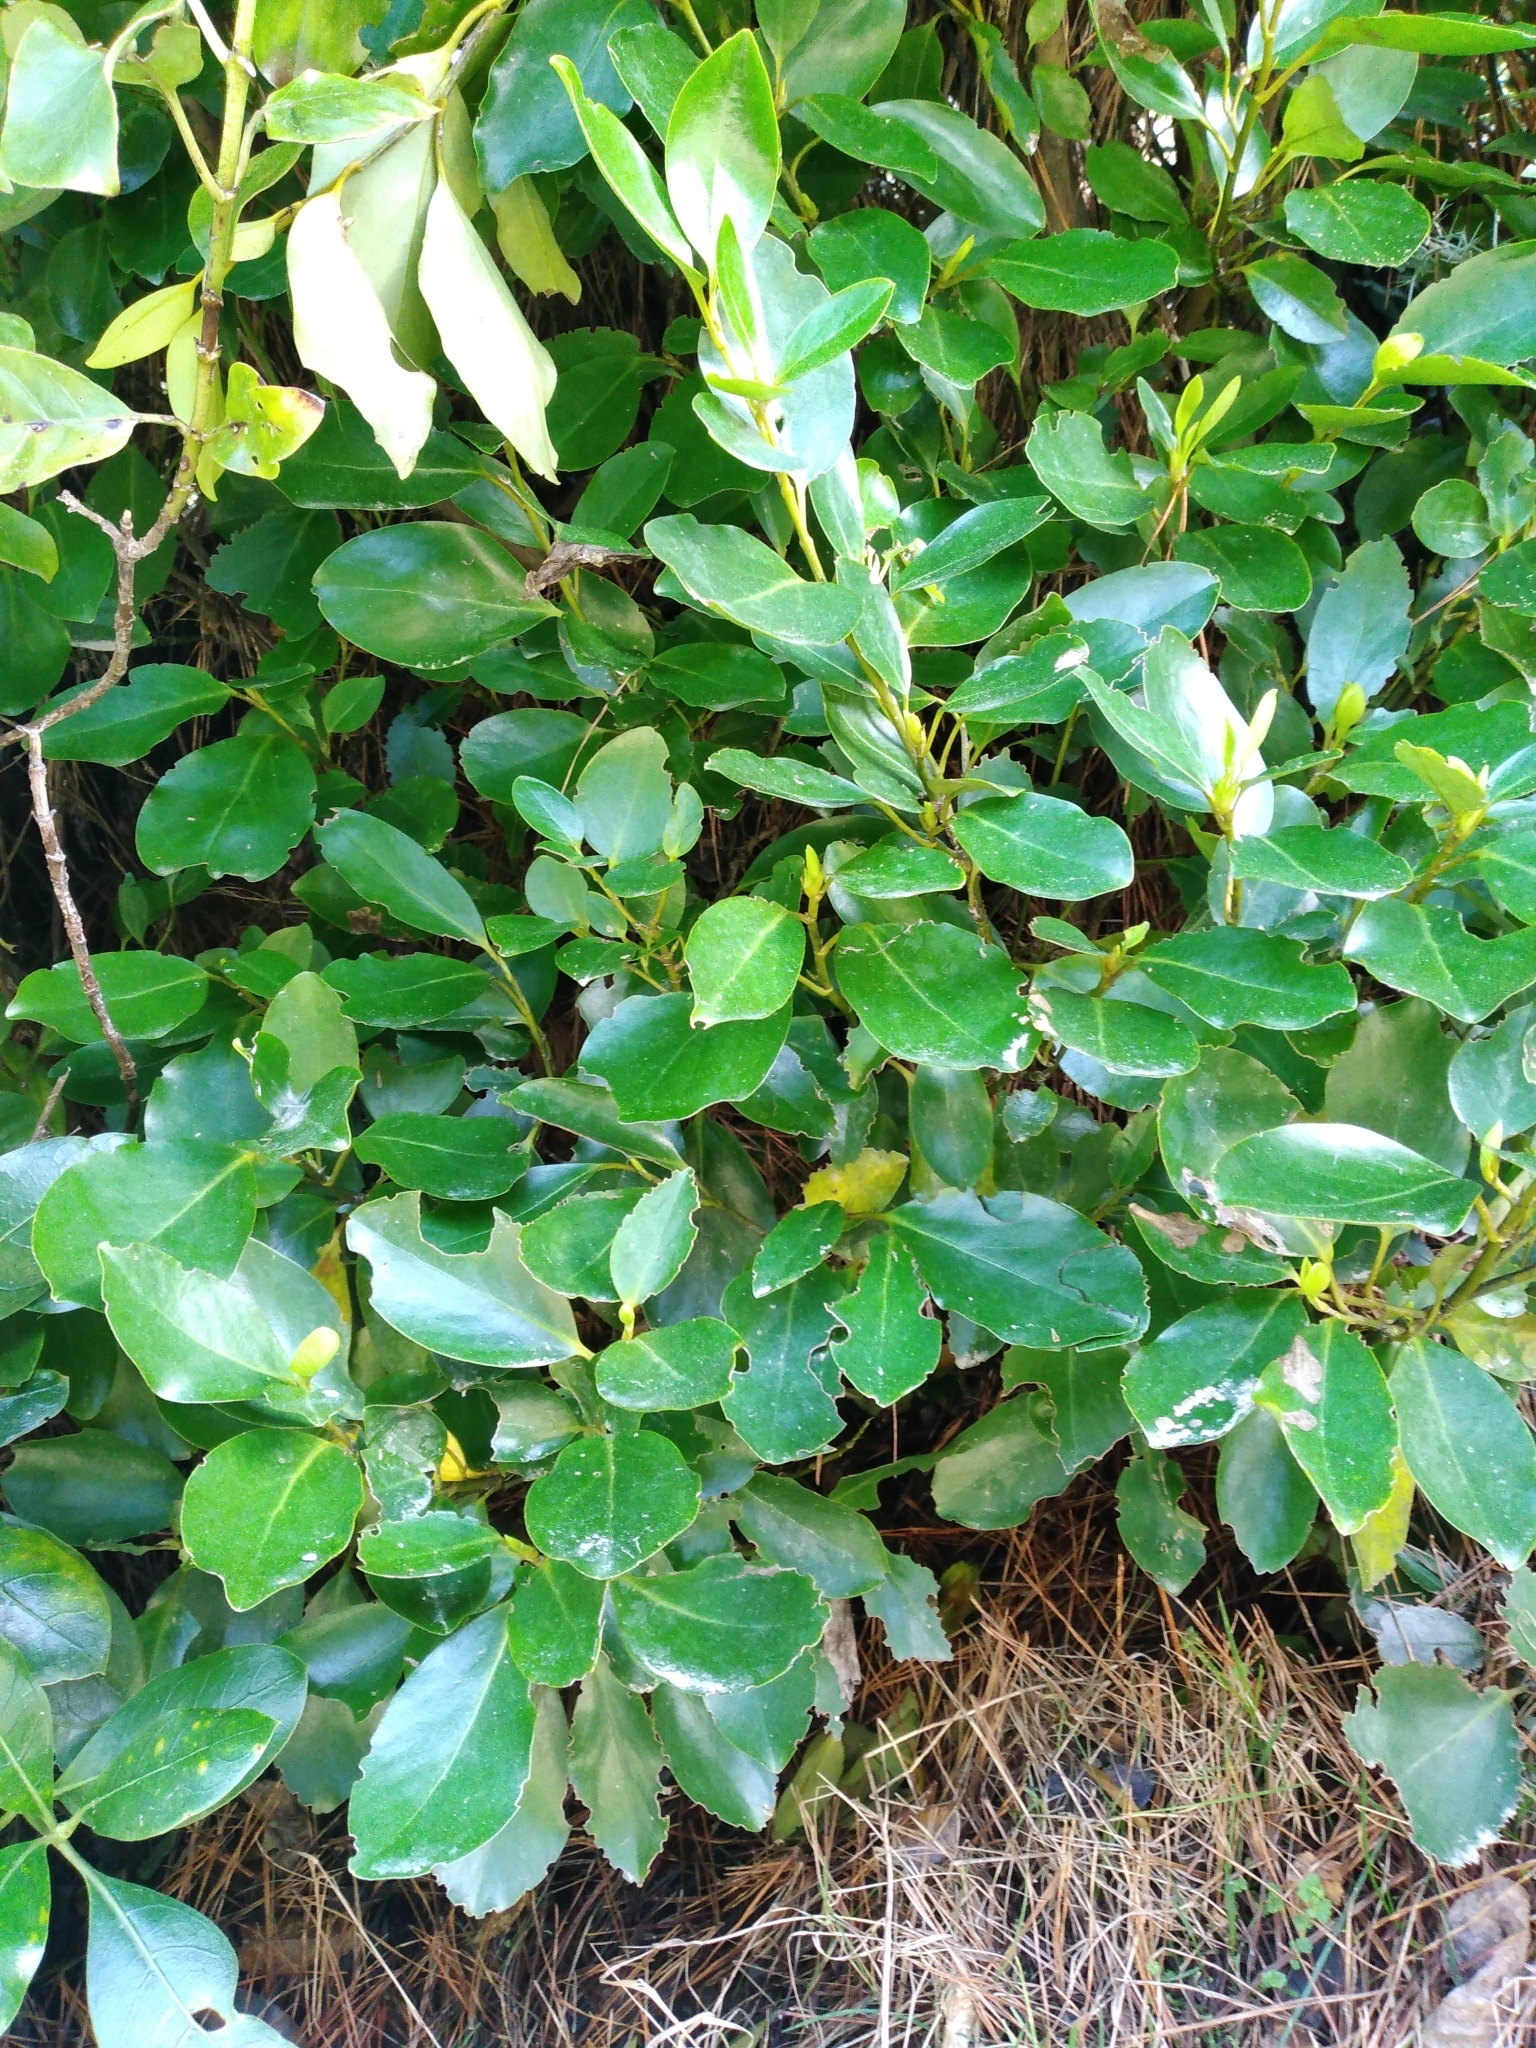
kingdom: Plantae
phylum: Tracheophyta
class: Magnoliopsida
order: Apiales
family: Griseliniaceae
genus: Griselinia
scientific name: Griselinia littoralis
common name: New zealand broadleaf
